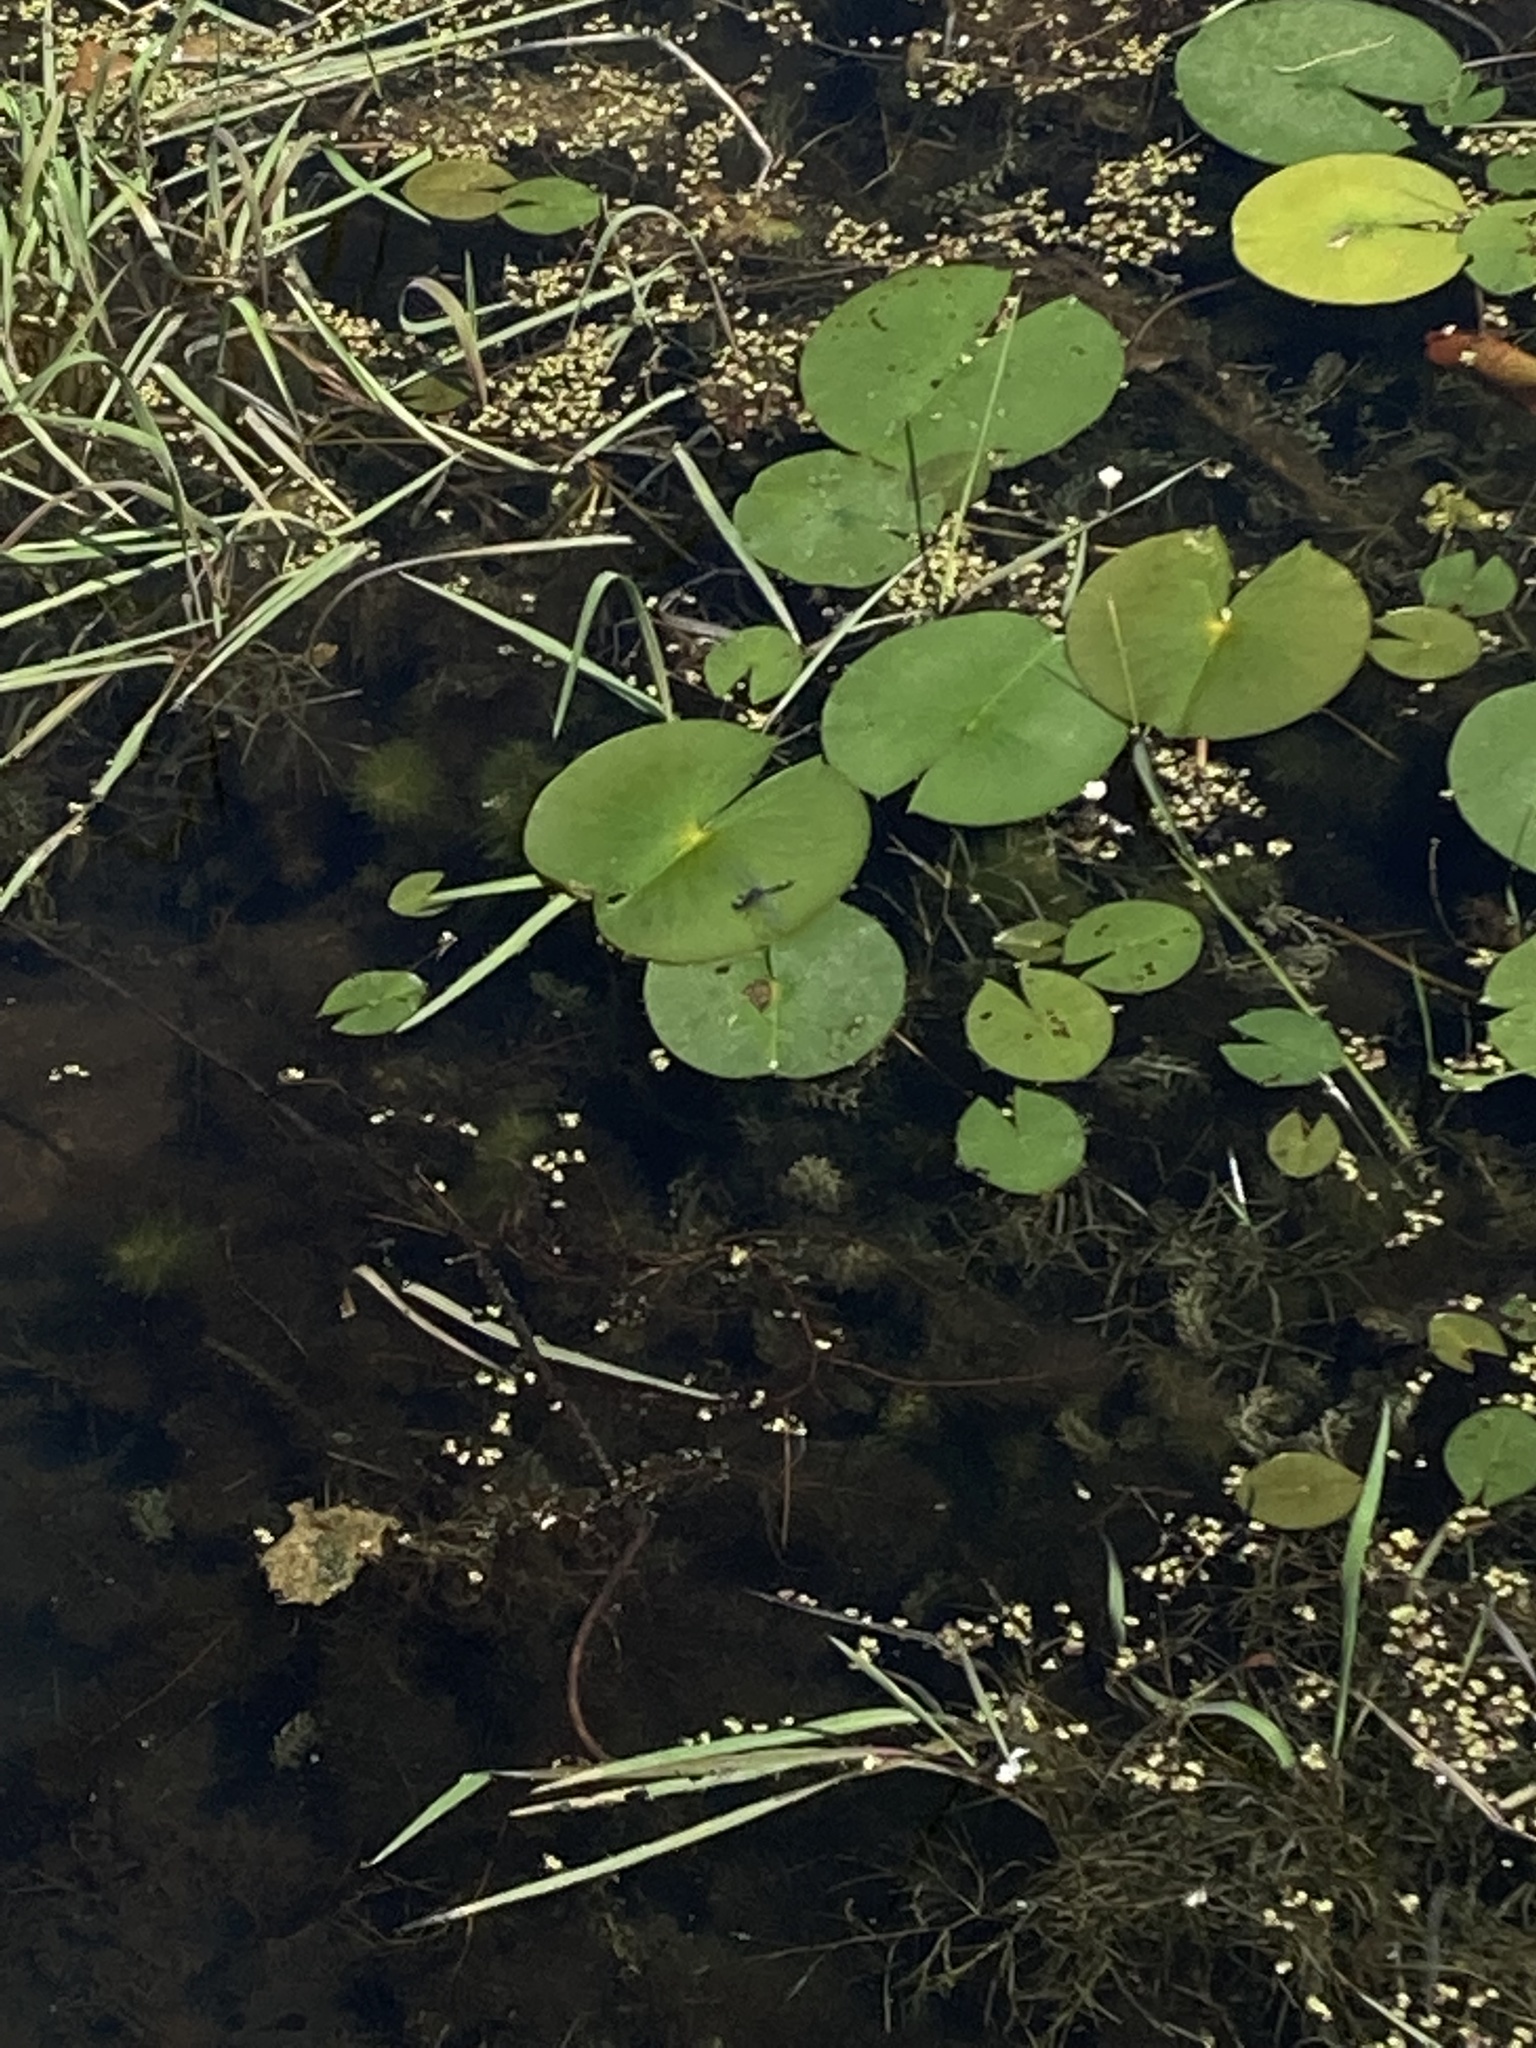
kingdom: Animalia
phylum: Arthropoda
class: Insecta
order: Odonata
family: Libellulidae
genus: Leucorrhinia
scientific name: Leucorrhinia intacta
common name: Dot-tailed whiteface
